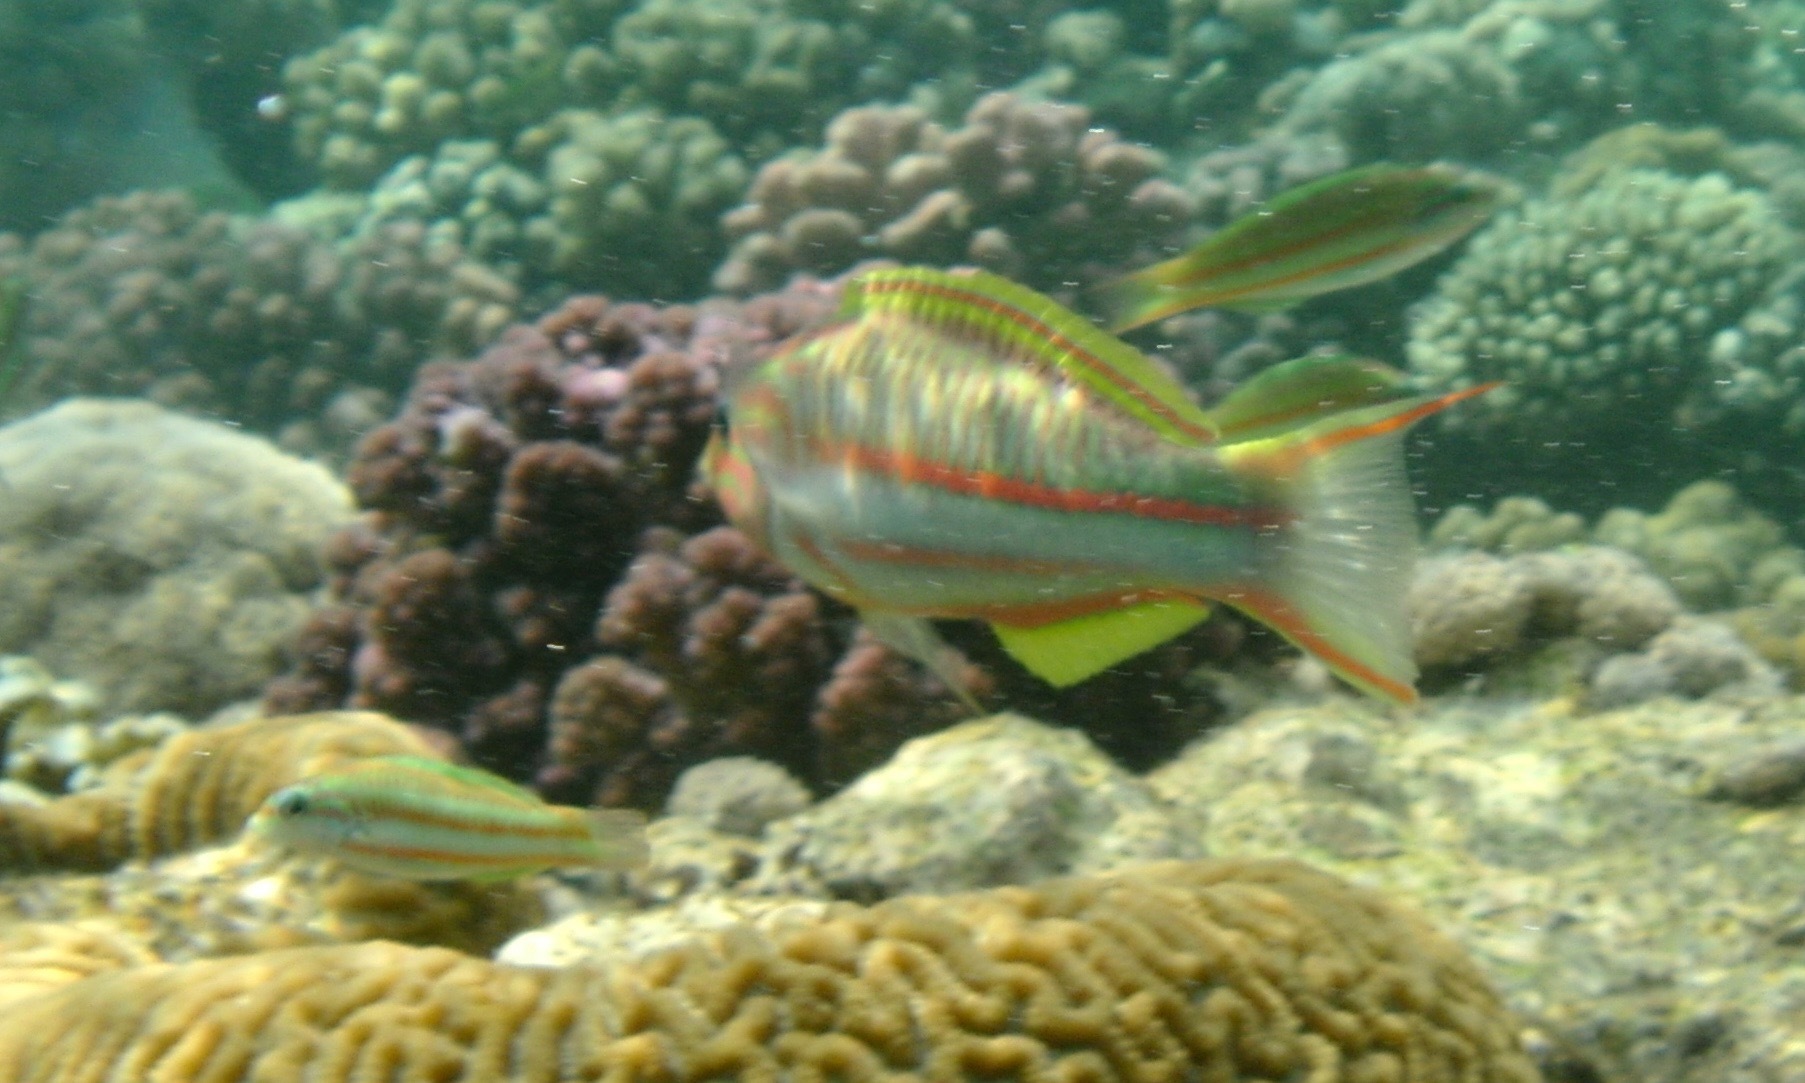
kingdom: Animalia
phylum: Chordata
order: Perciformes
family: Labridae
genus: Thalassoma
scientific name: Thalassoma rueppellii
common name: Klunzinger's wrasse
